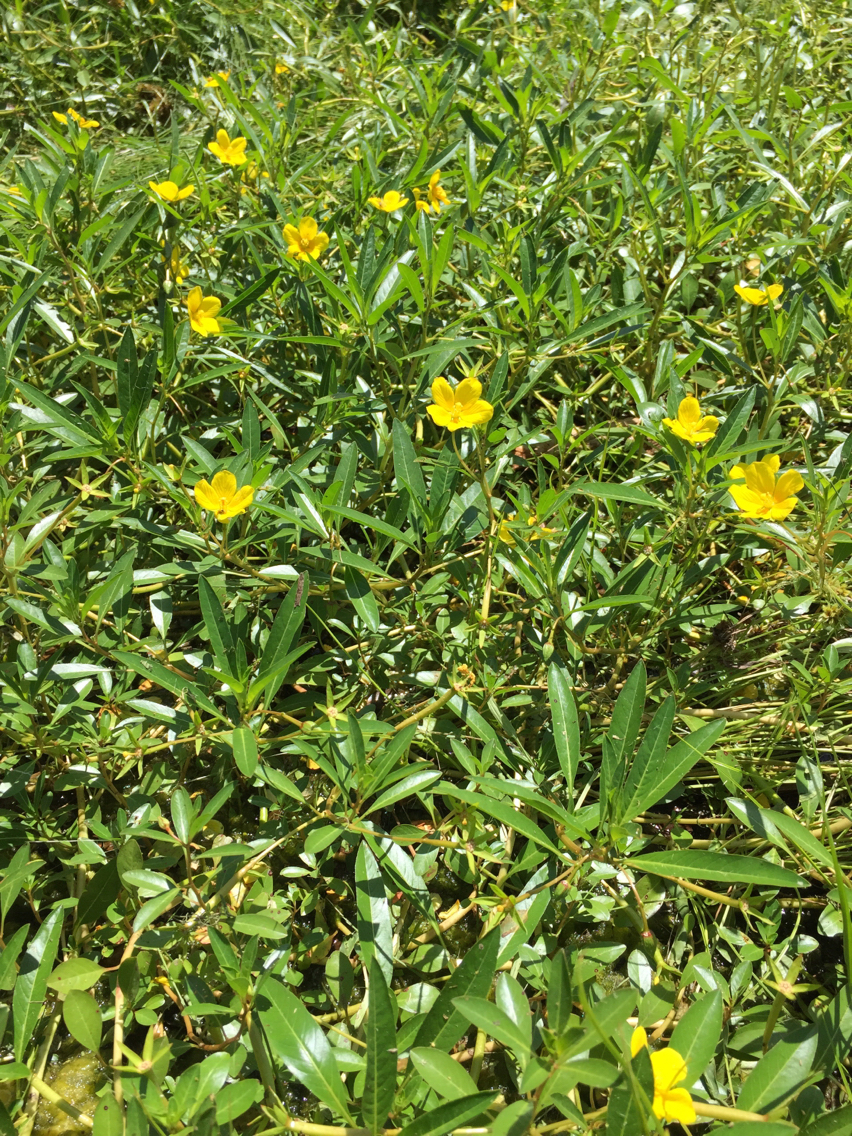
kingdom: Plantae
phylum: Tracheophyta
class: Magnoliopsida
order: Myrtales
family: Onagraceae
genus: Ludwigia
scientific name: Ludwigia peploides
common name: Floating primrose-willow
